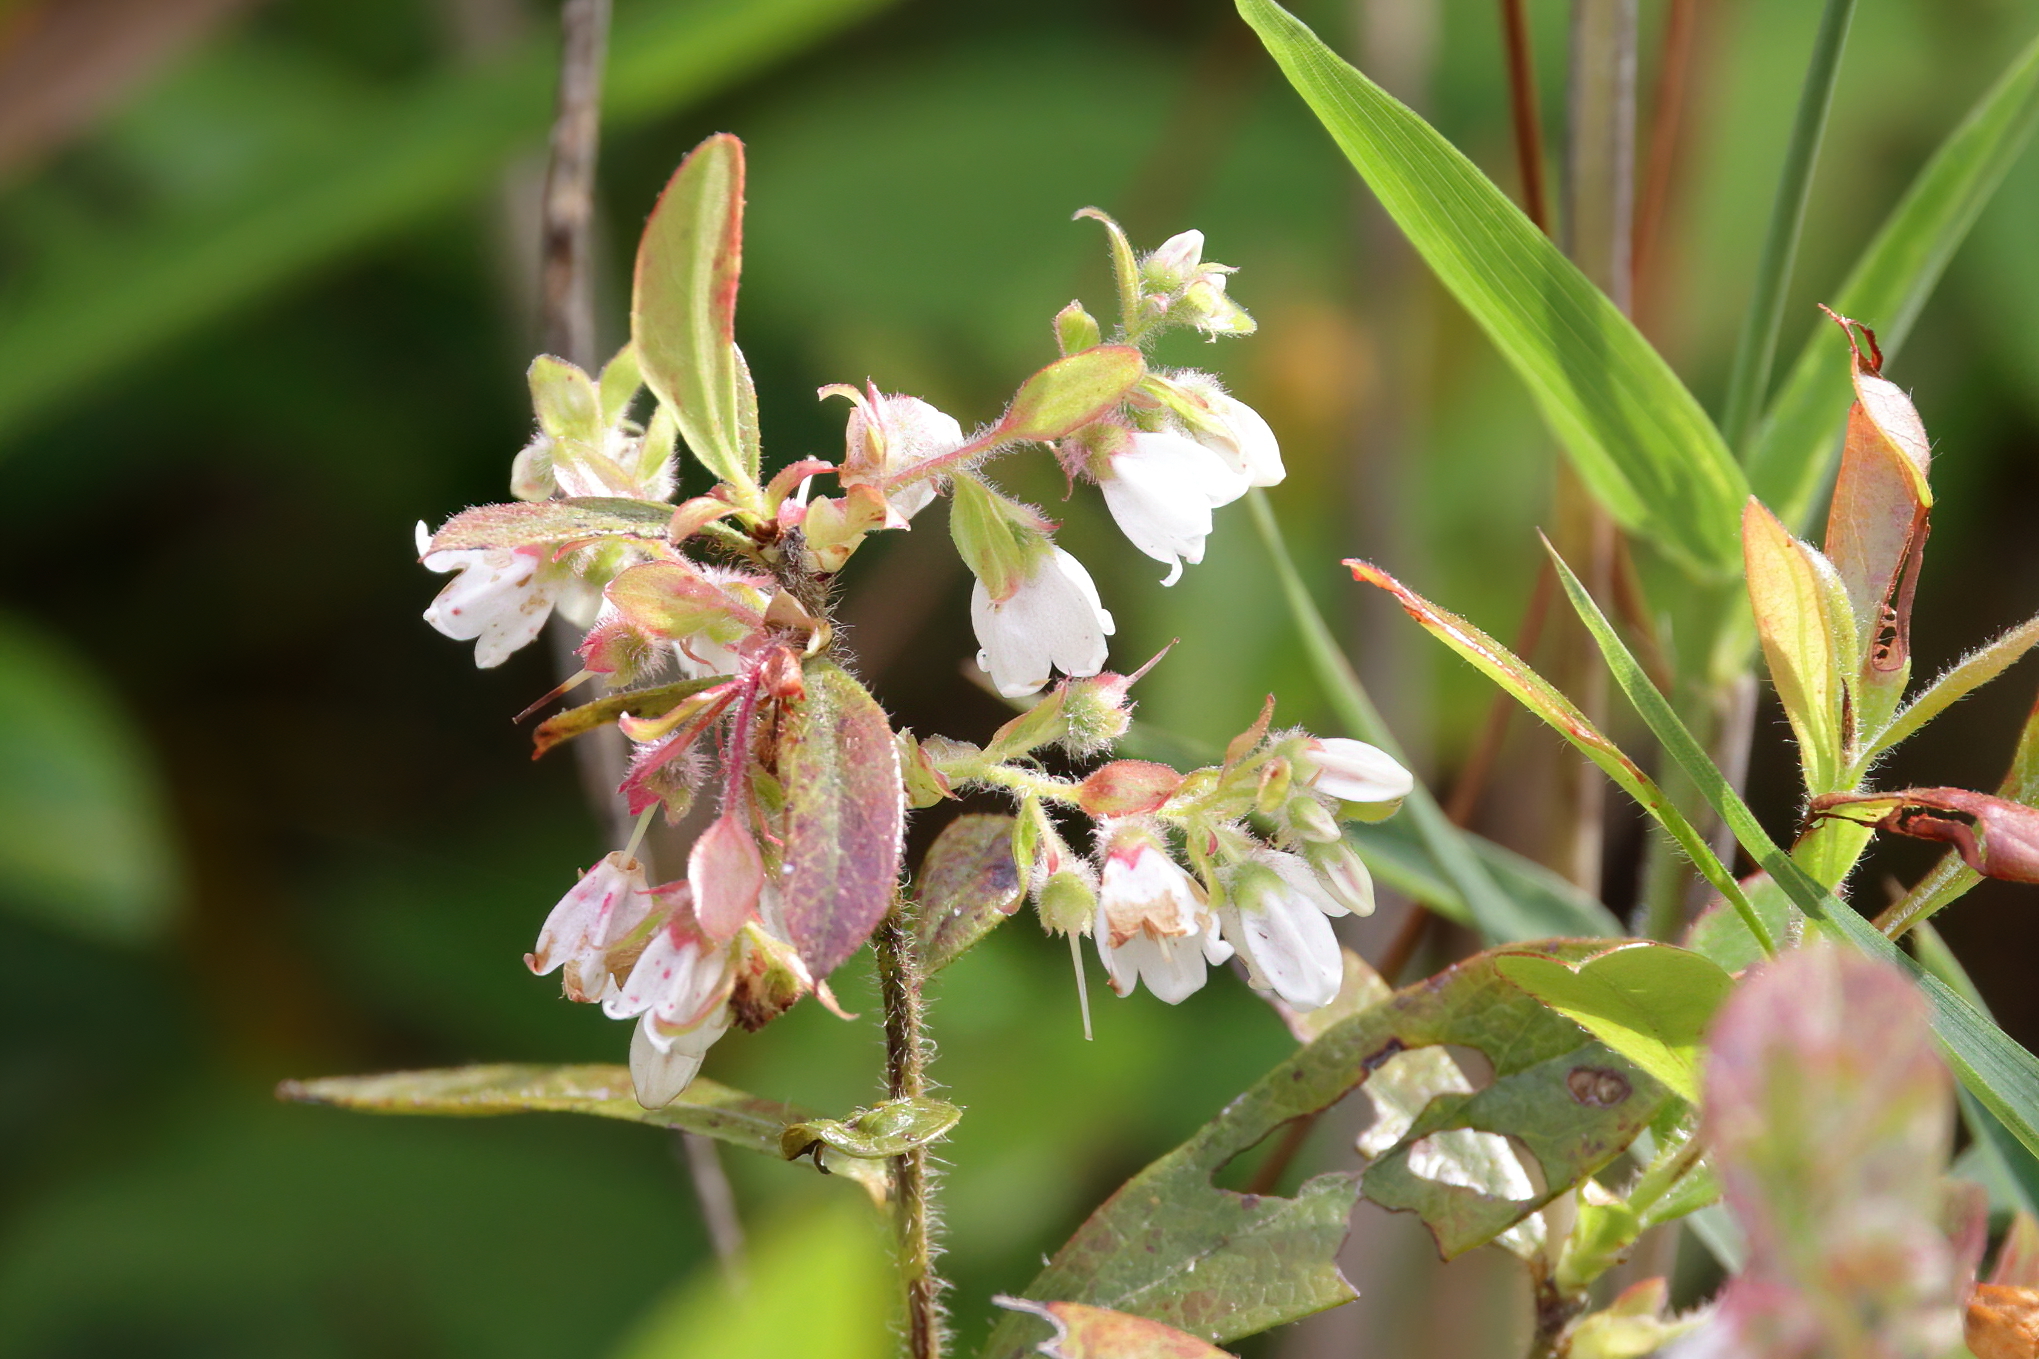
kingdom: Plantae
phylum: Tracheophyta
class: Magnoliopsida
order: Ericales
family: Ericaceae
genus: Gaylussacia
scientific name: Gaylussacia mosieri
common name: Hirsute huckleberry
